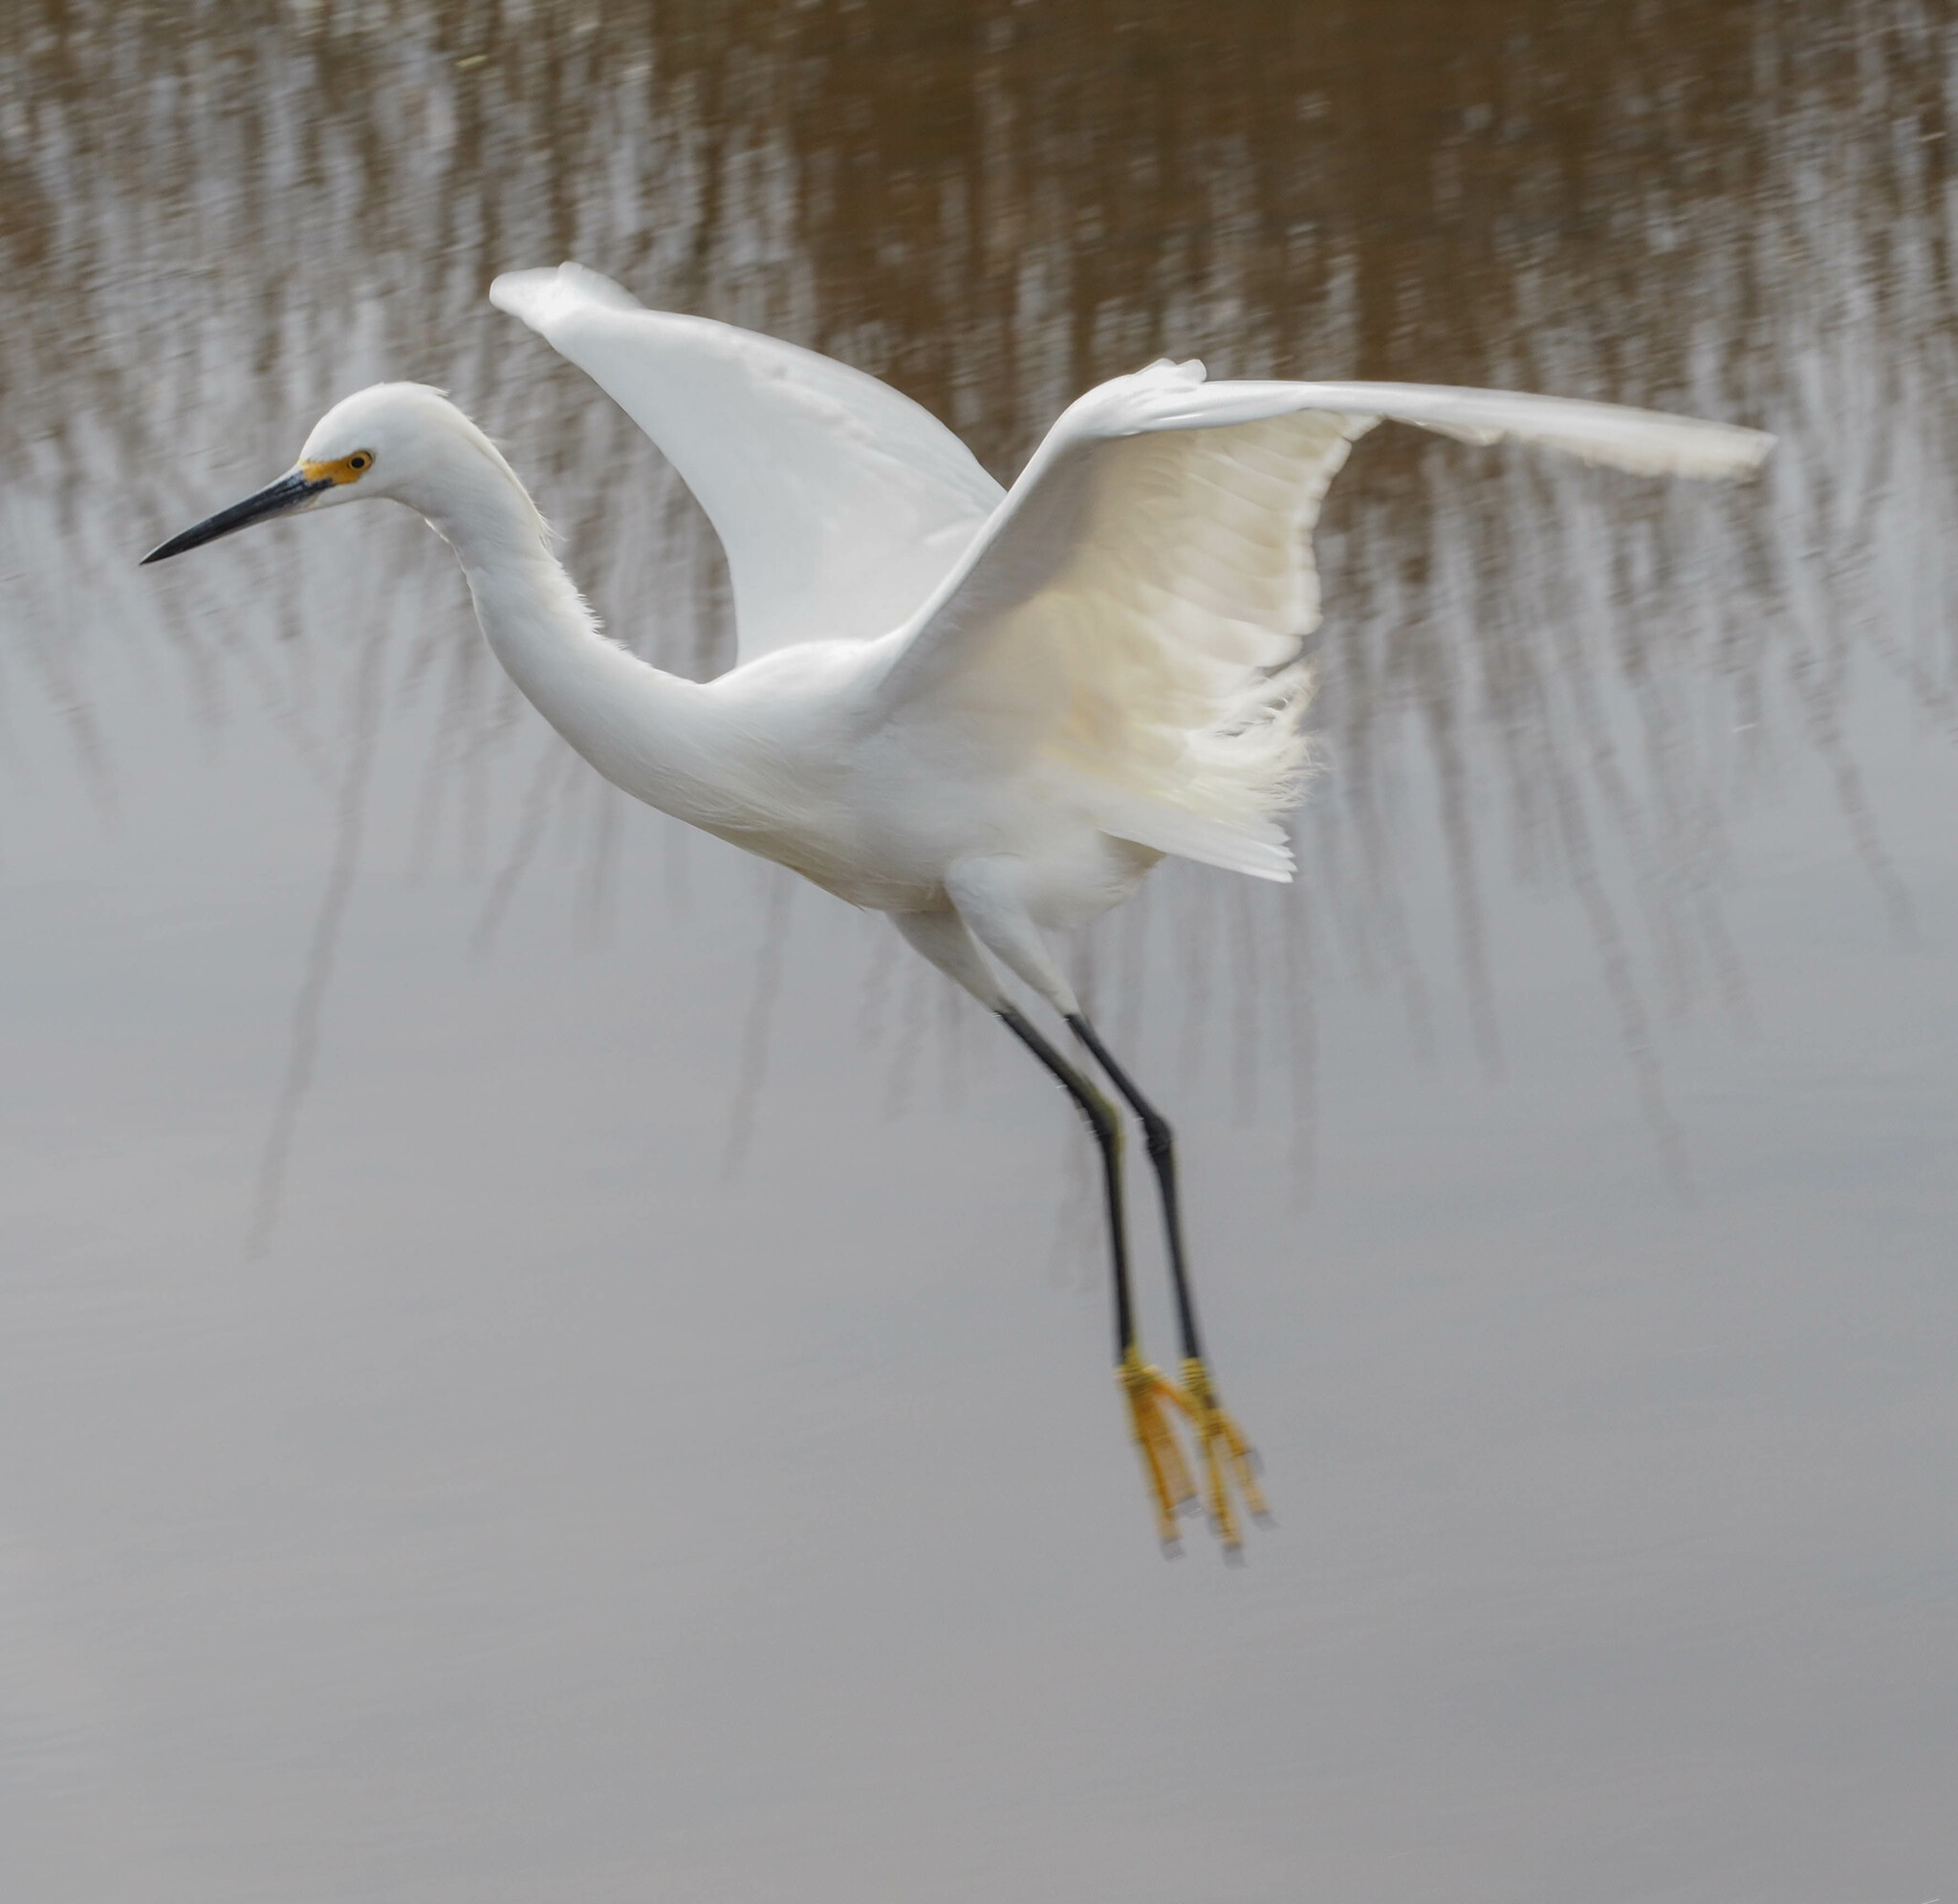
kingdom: Animalia
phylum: Chordata
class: Aves
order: Pelecaniformes
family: Ardeidae
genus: Egretta
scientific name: Egretta thula
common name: Snowy egret
